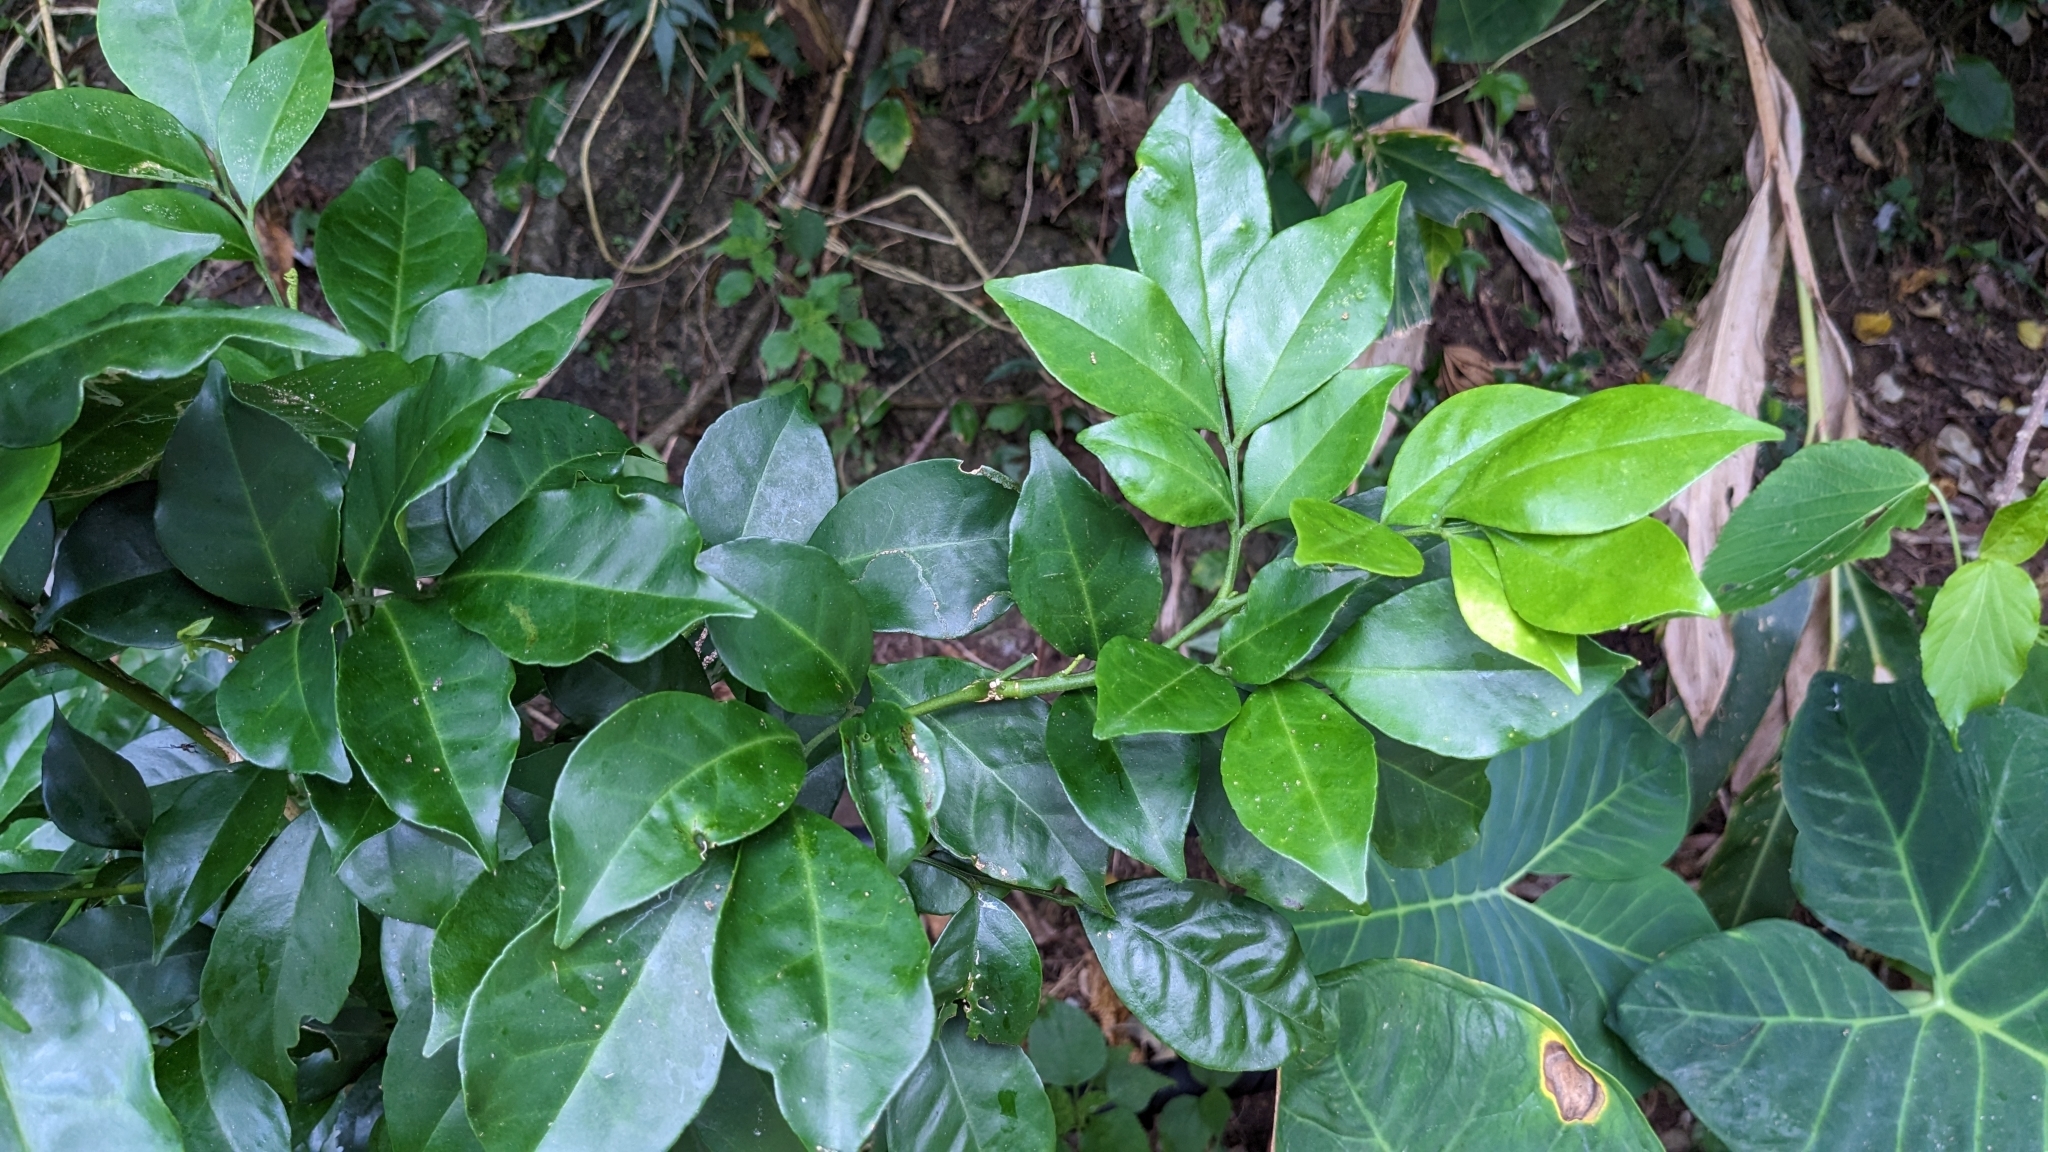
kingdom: Plantae
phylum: Tracheophyta
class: Magnoliopsida
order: Sapindales
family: Rutaceae
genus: Murraya
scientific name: Murraya omphalocarpa
